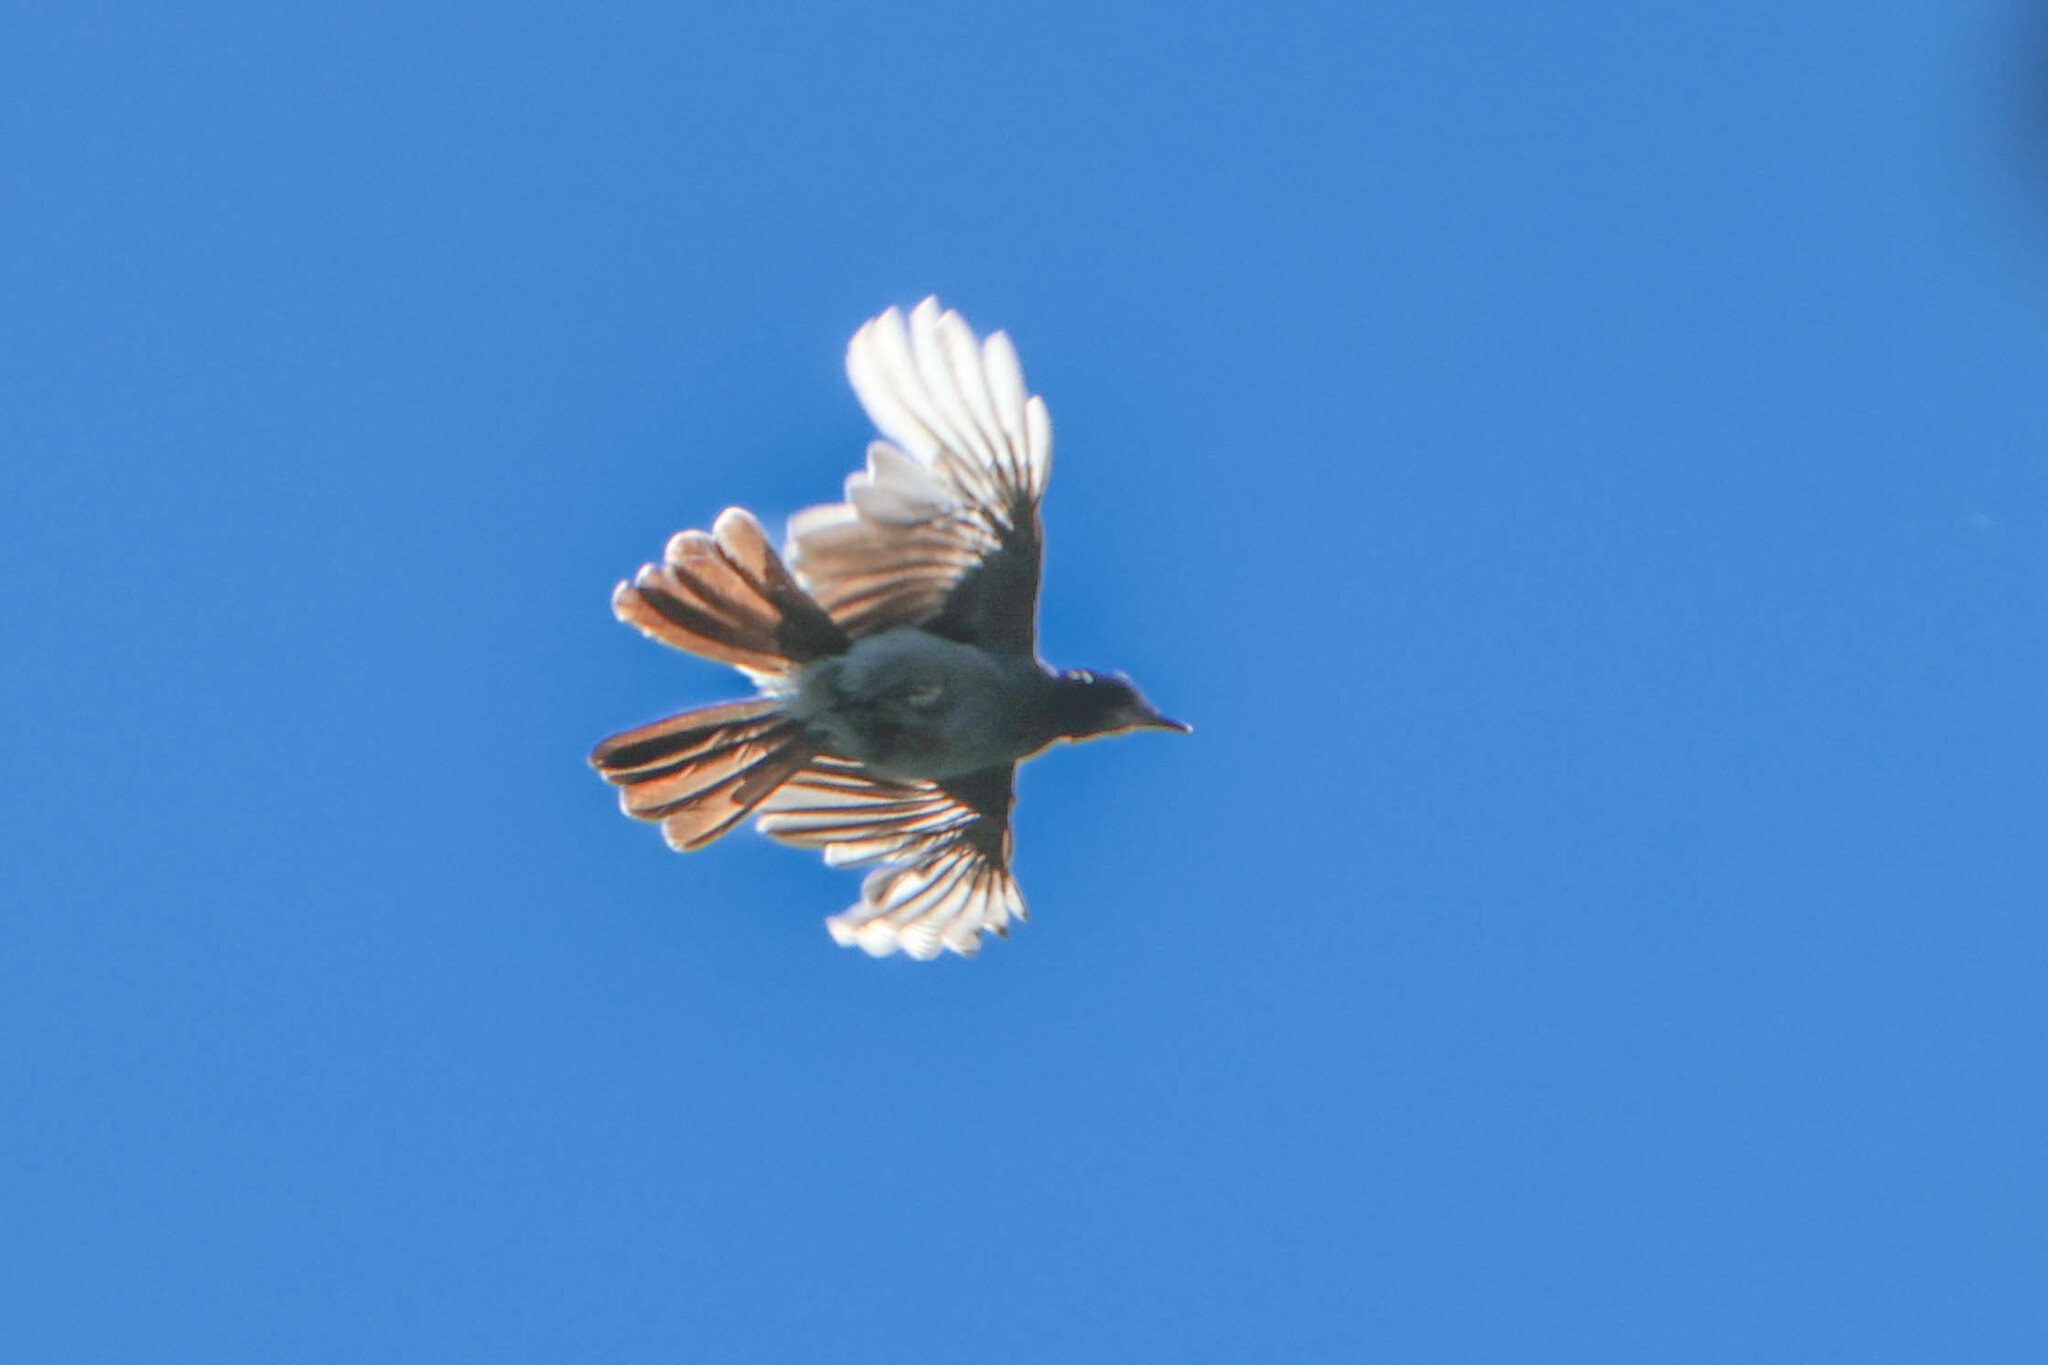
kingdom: Animalia
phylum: Chordata
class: Aves
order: Passeriformes
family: Corvidae
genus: Cyanocitta
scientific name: Cyanocitta stelleri
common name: Steller's jay
